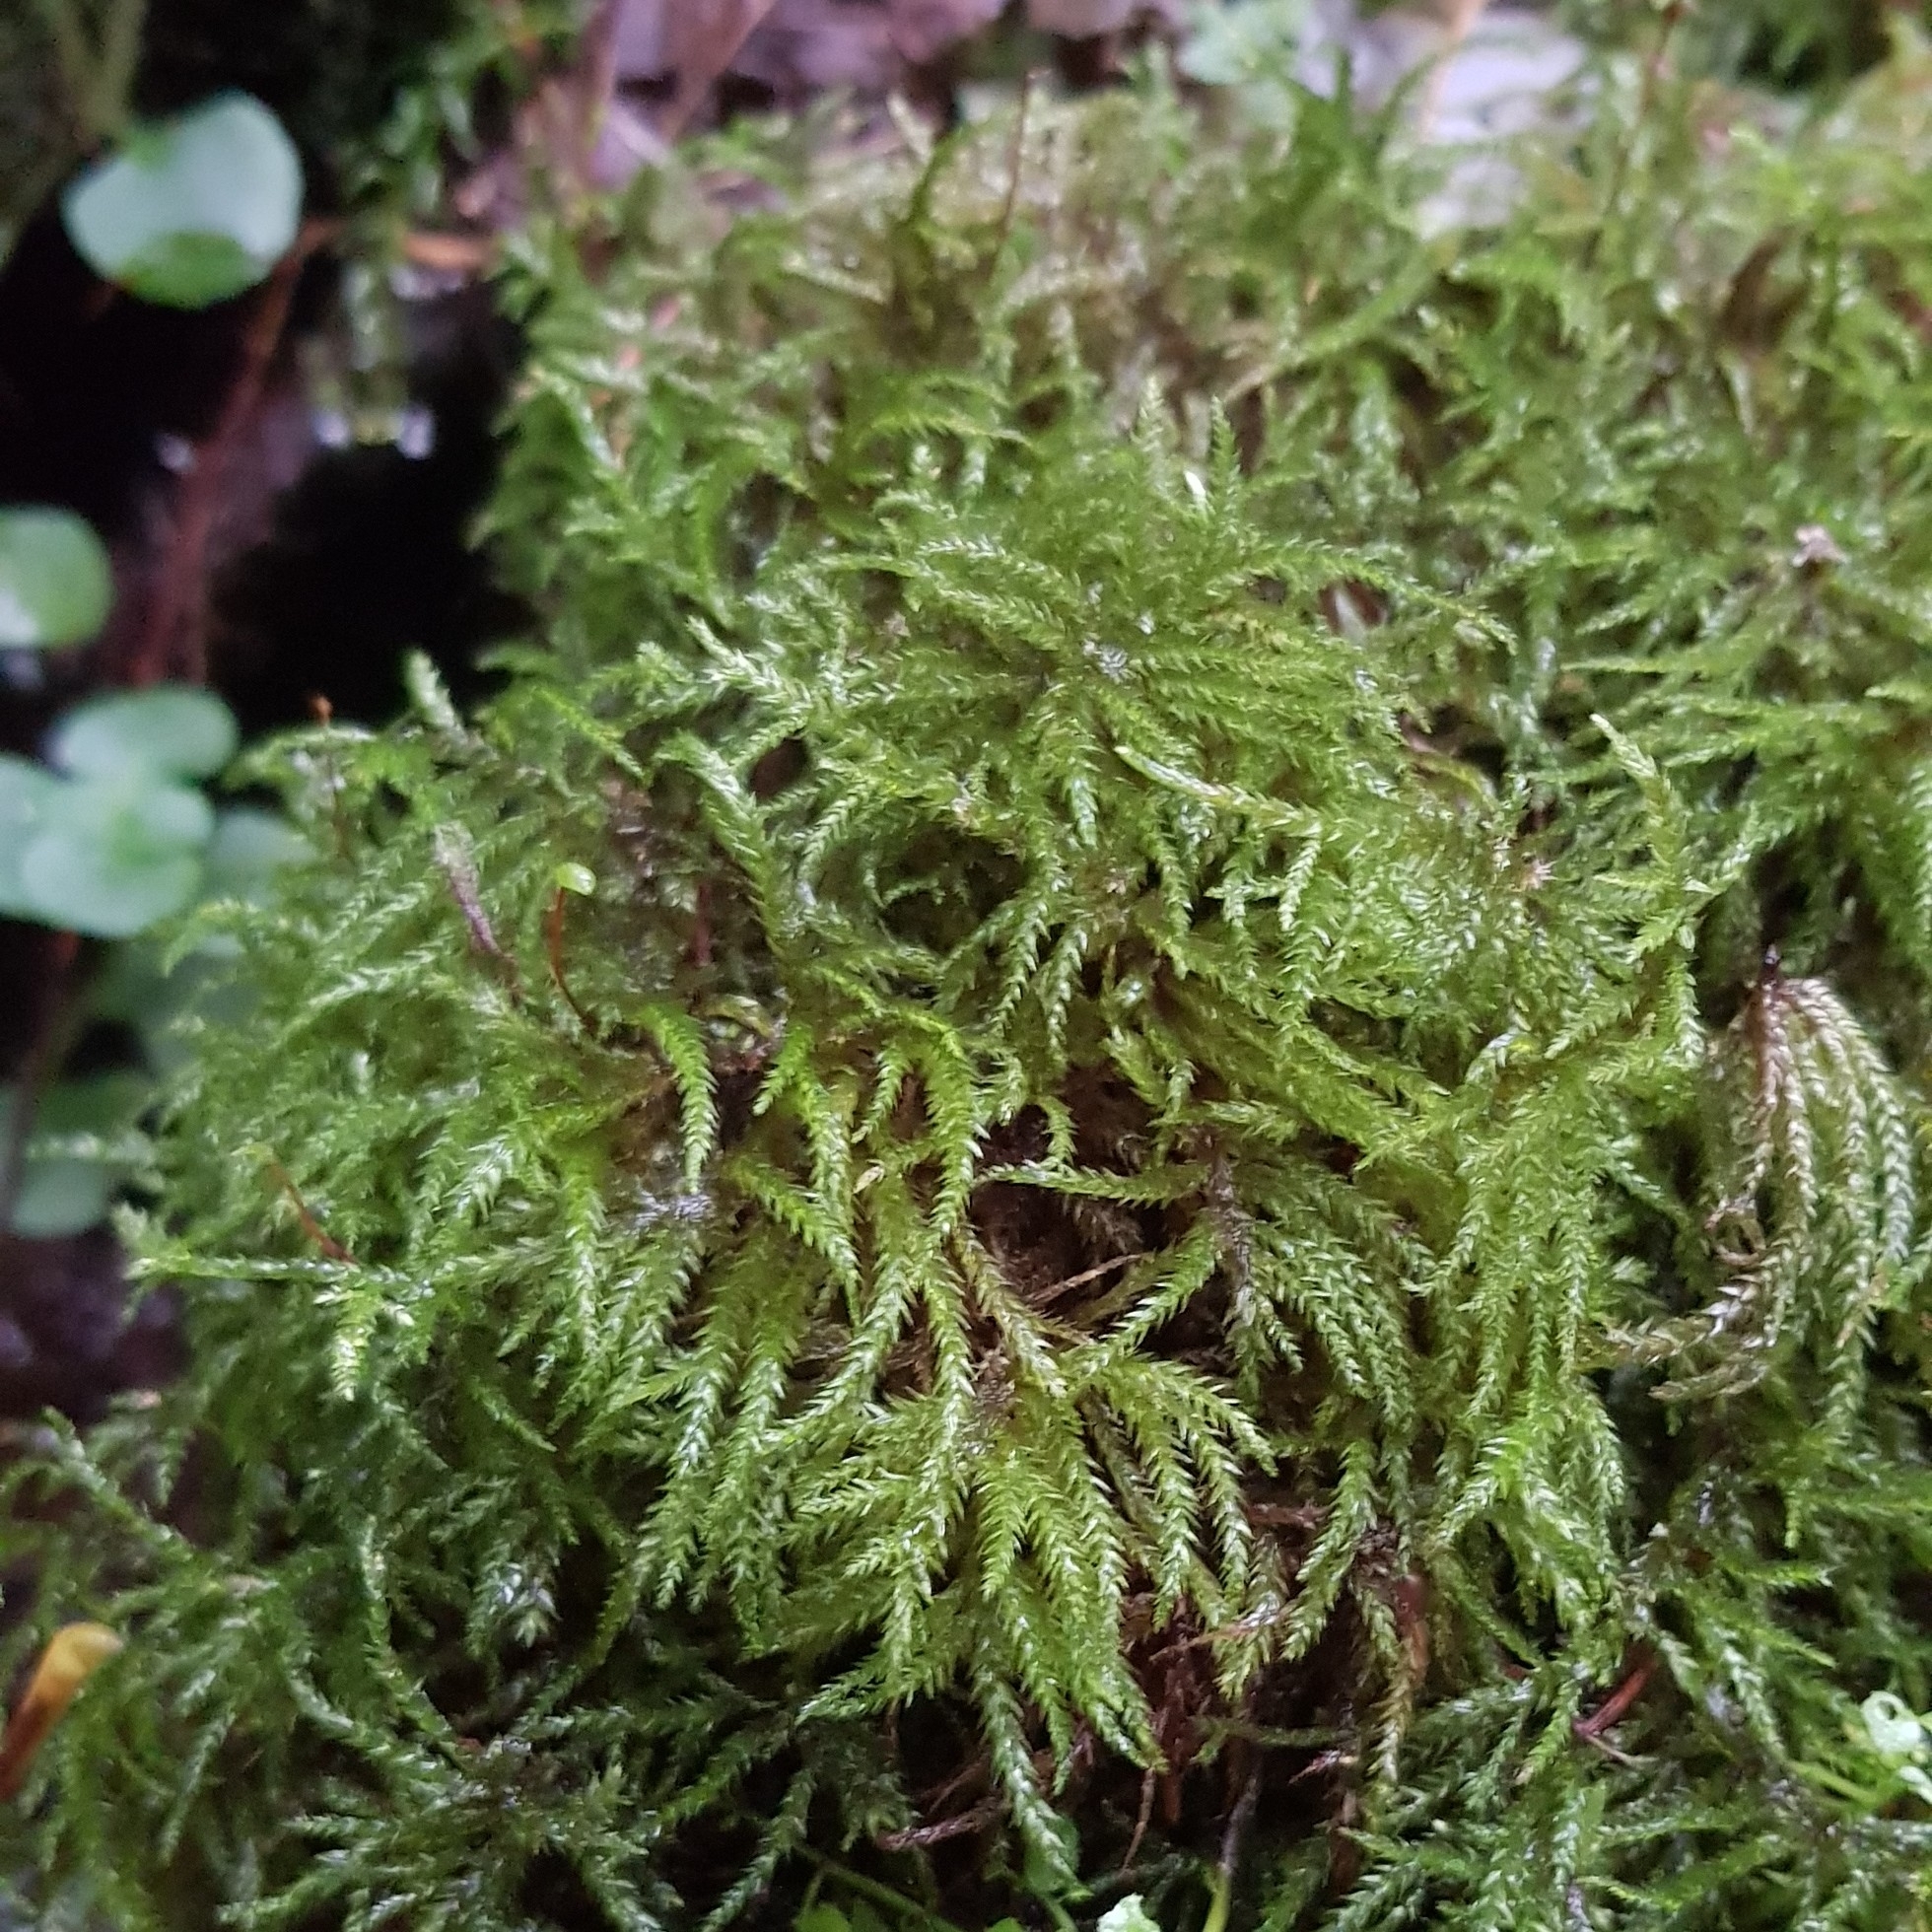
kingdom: Plantae
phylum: Bryophyta
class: Bryopsida
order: Hypnales
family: Brachytheciaceae
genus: Brachythecium
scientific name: Brachythecium rivulare
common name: River ragged moss
